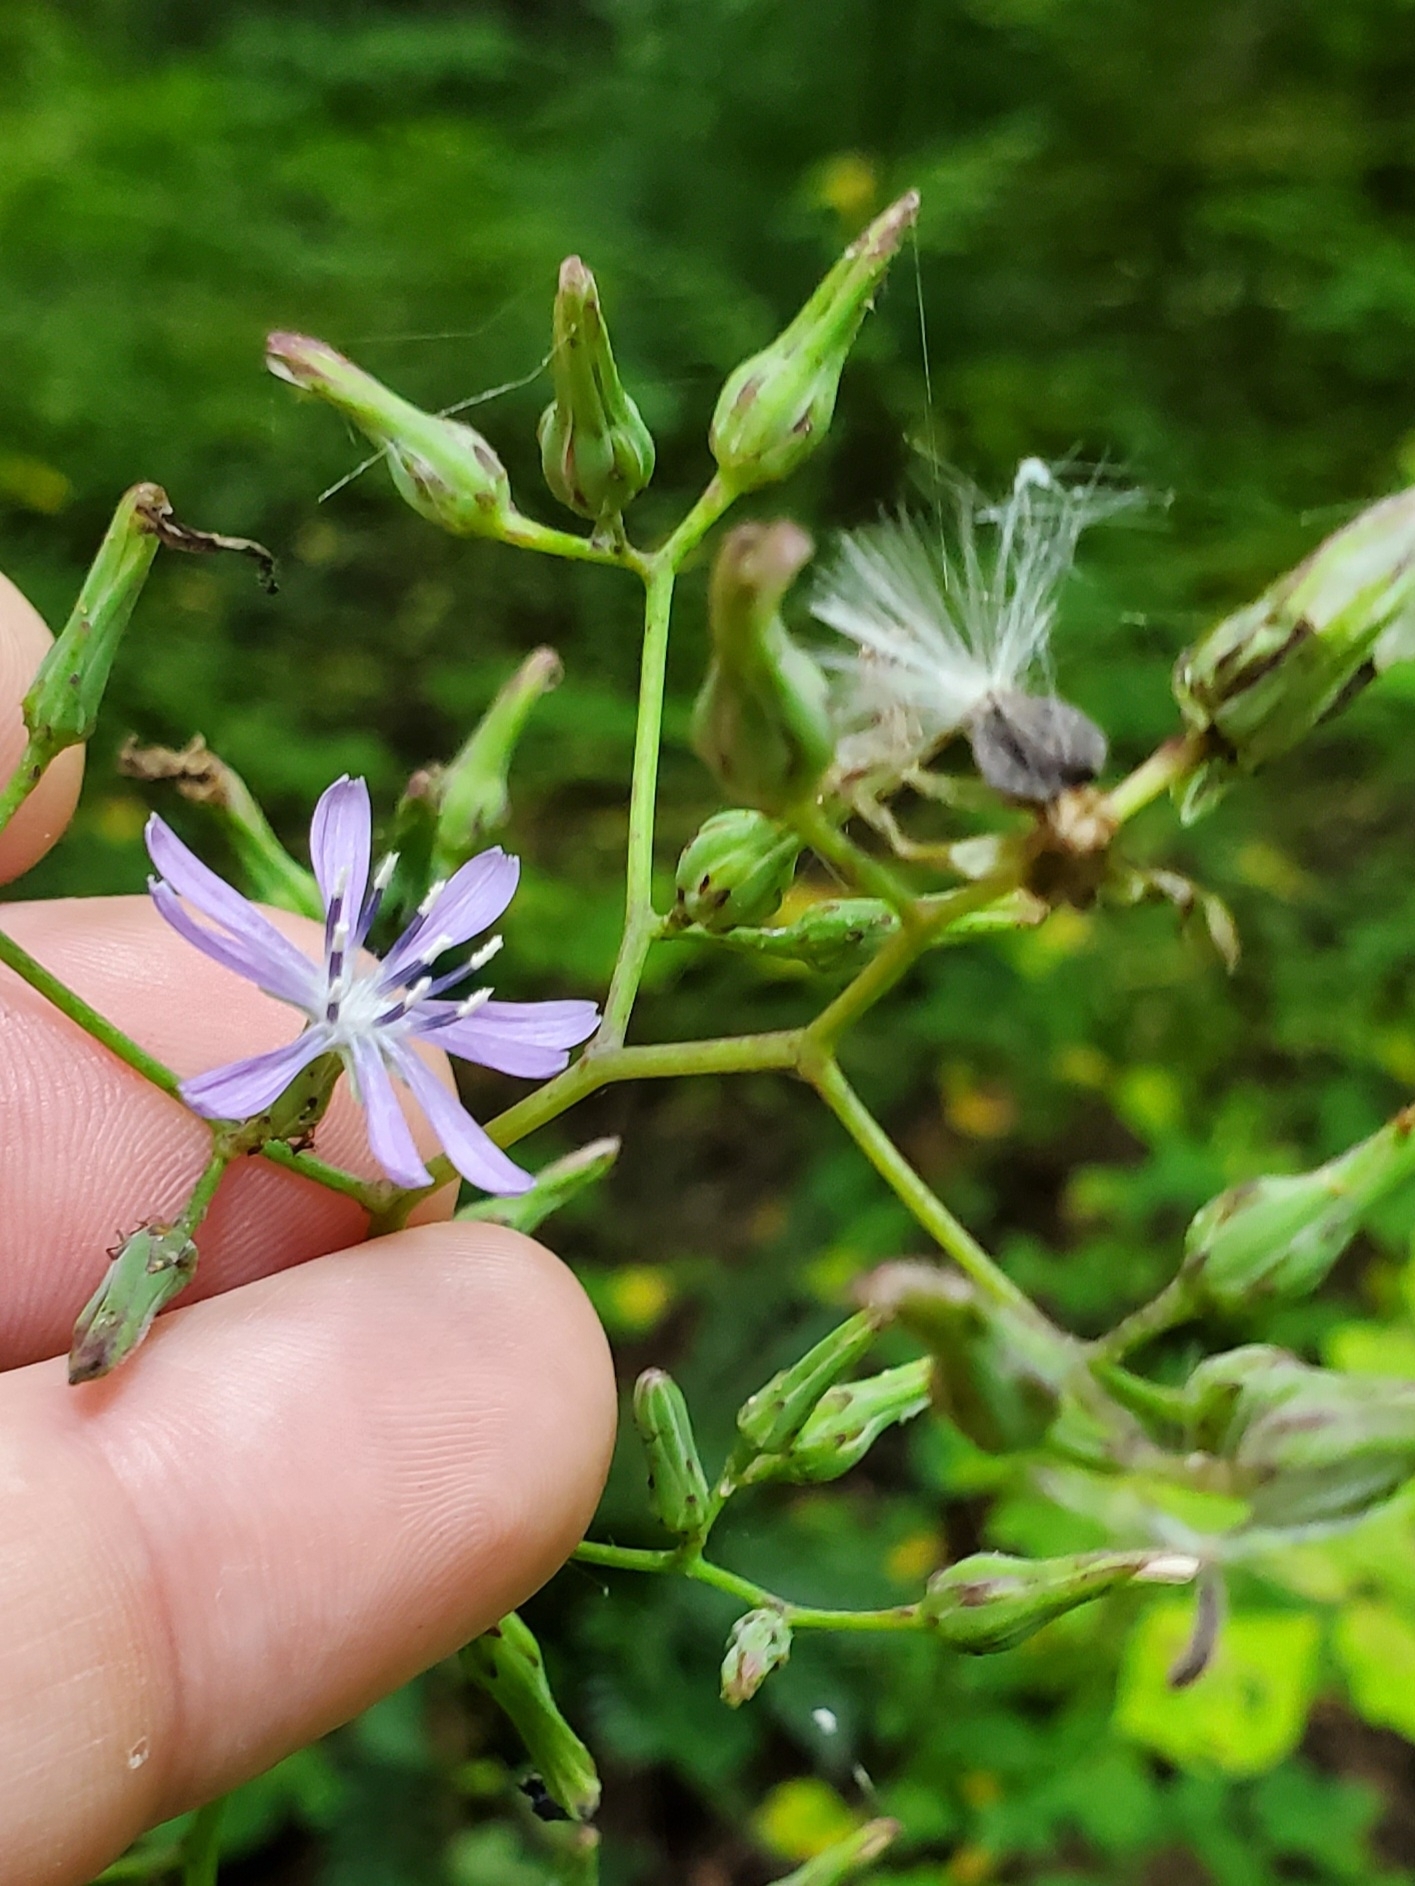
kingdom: Plantae
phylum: Tracheophyta
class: Magnoliopsida
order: Asterales
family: Asteraceae
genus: Lactuca
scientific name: Lactuca floridana
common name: Woodland lettuce
